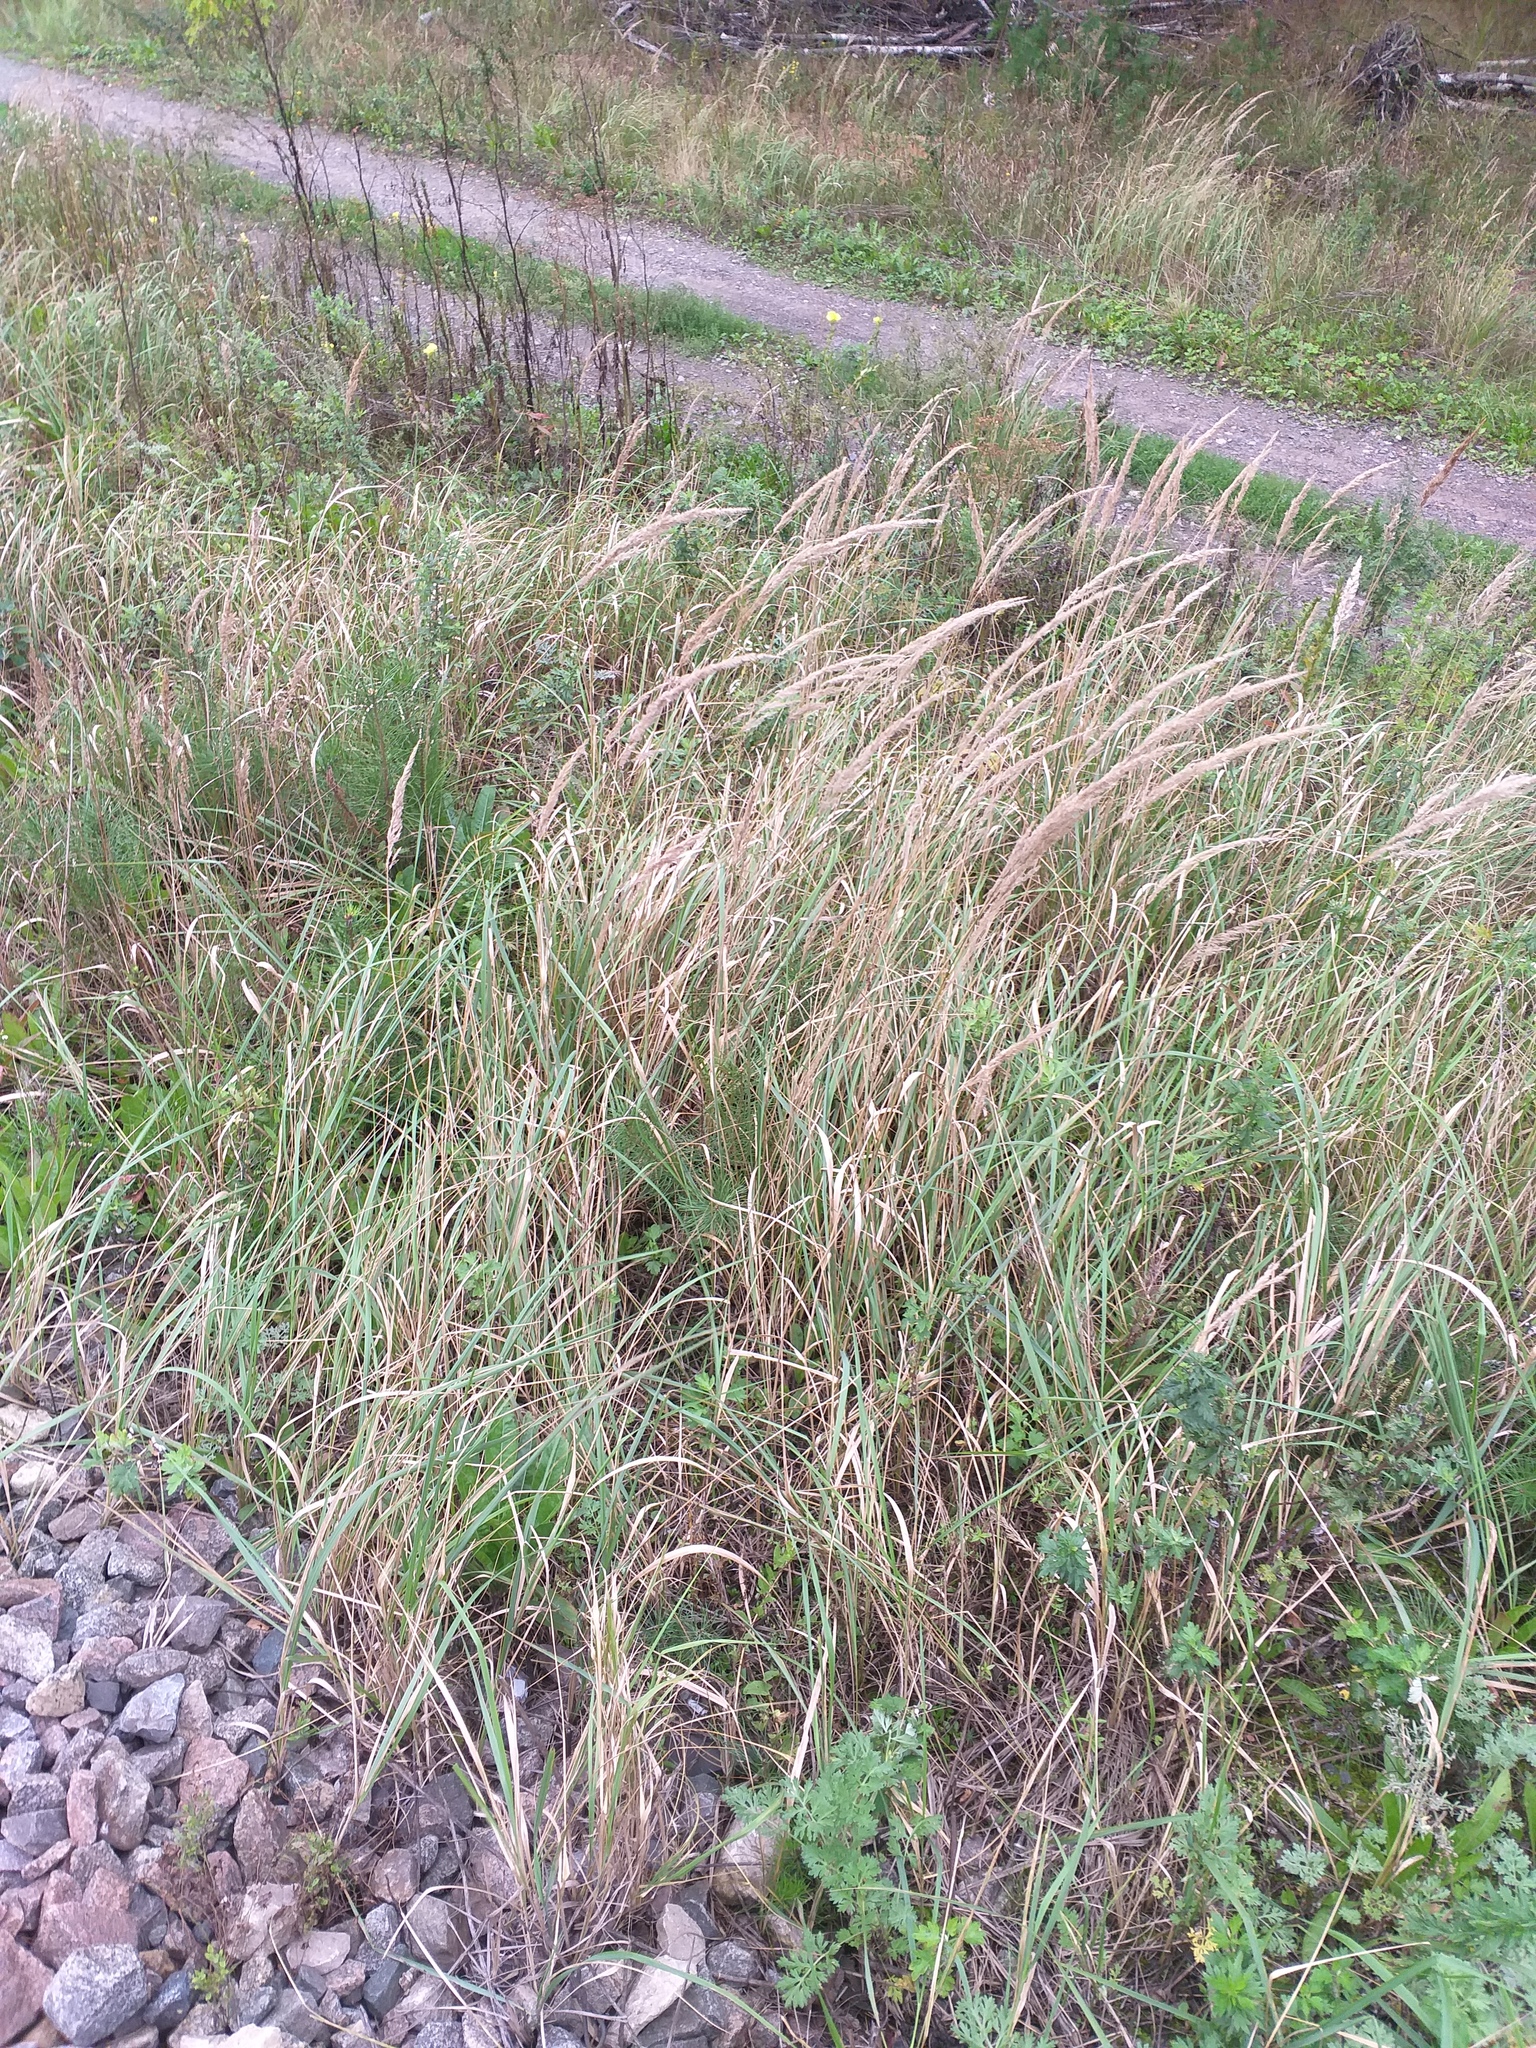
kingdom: Plantae
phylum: Tracheophyta
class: Liliopsida
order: Poales
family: Poaceae
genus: Calamagrostis
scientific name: Calamagrostis epigejos
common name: Wood small-reed
